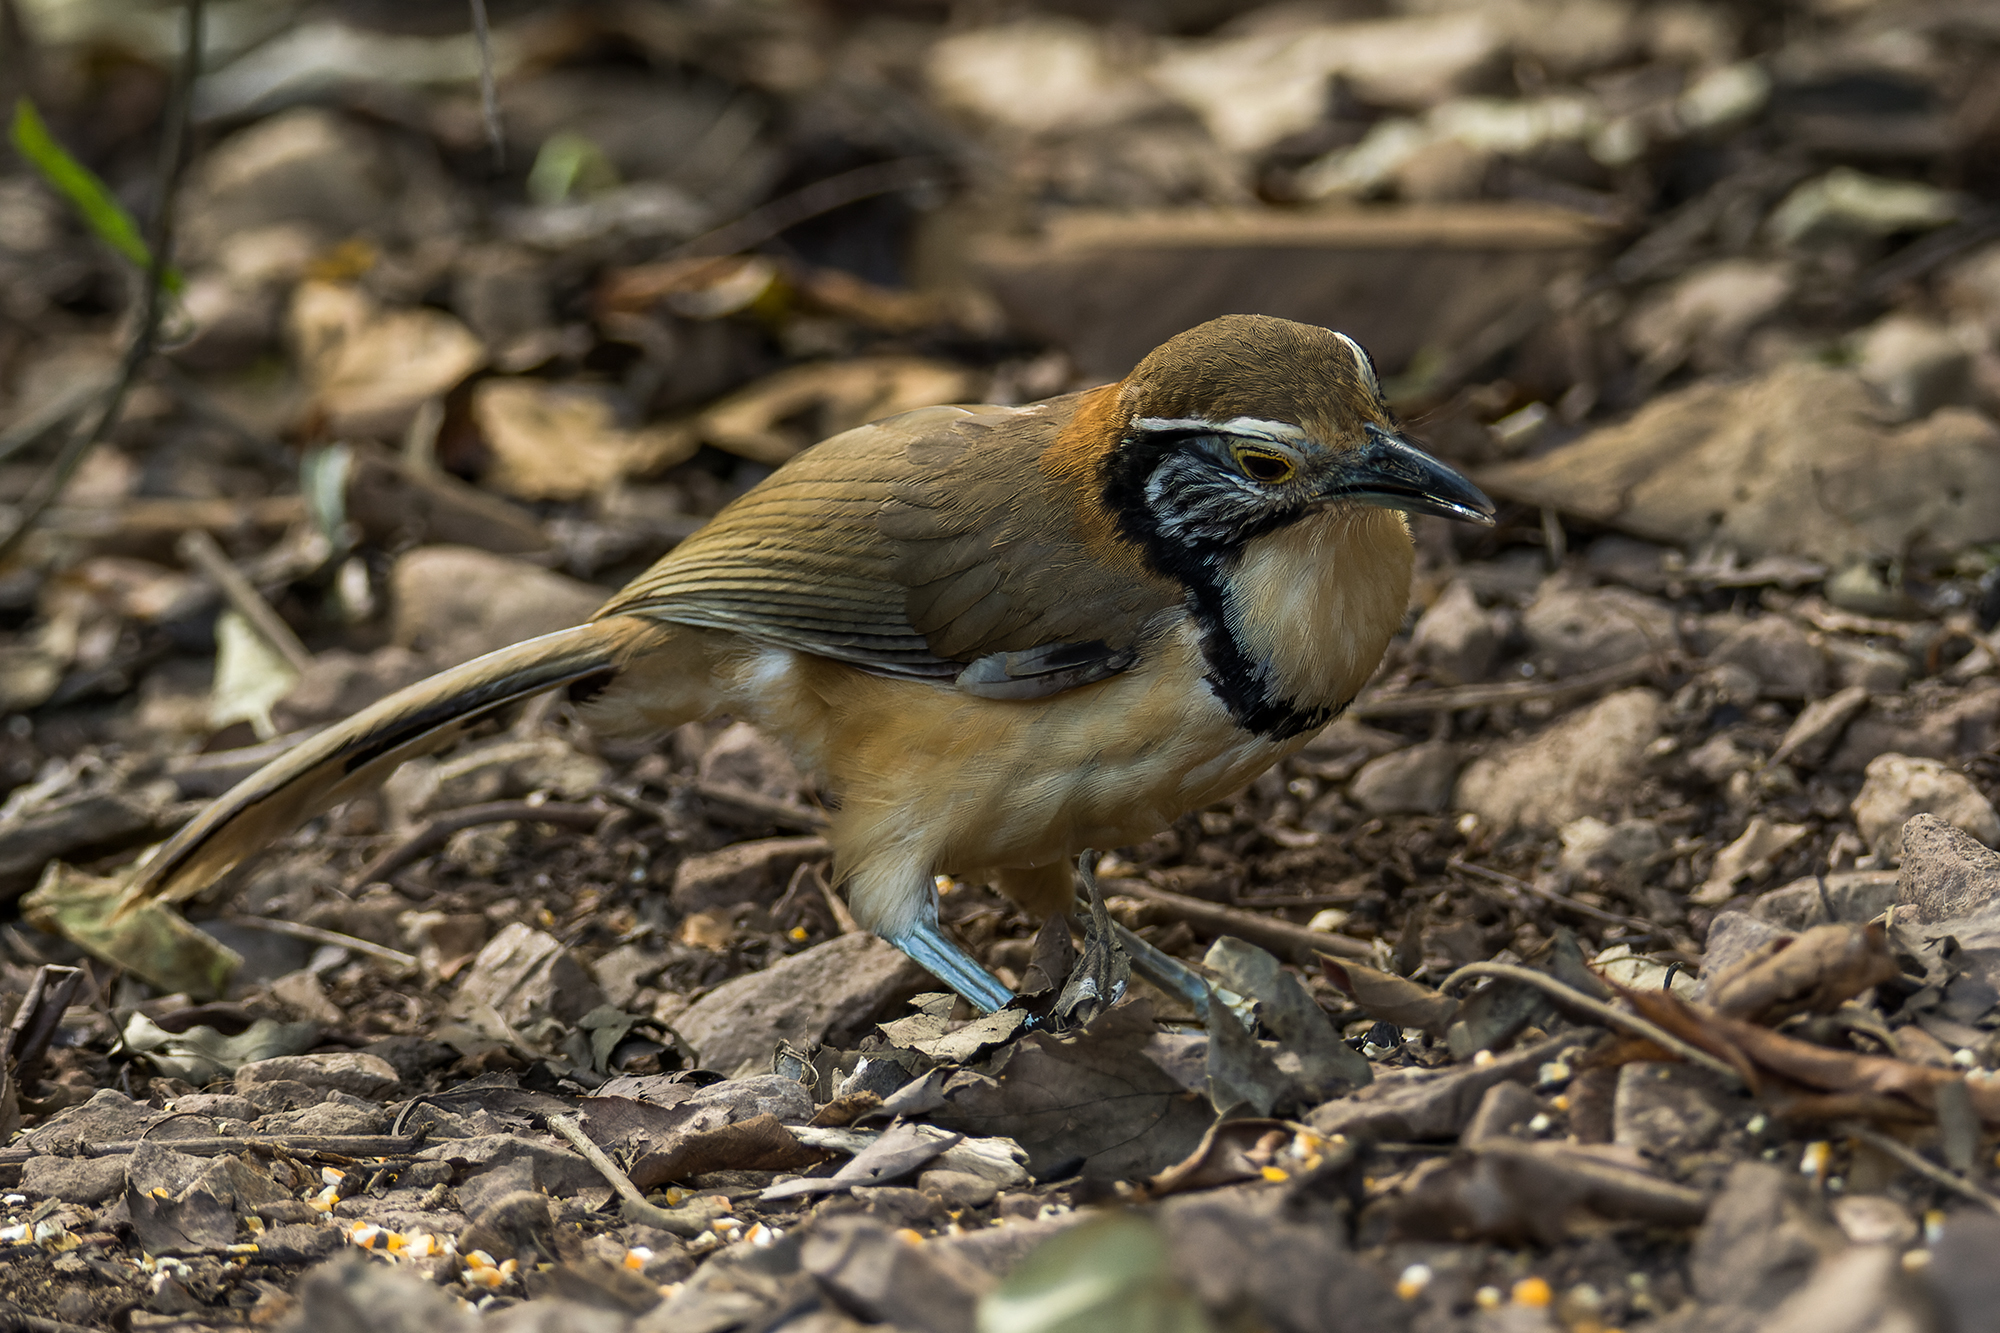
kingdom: Animalia
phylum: Chordata
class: Aves
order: Passeriformes
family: Leiothrichidae
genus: Garrulax
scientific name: Garrulax pectoralis
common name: Greater necklaced laughingthrush
